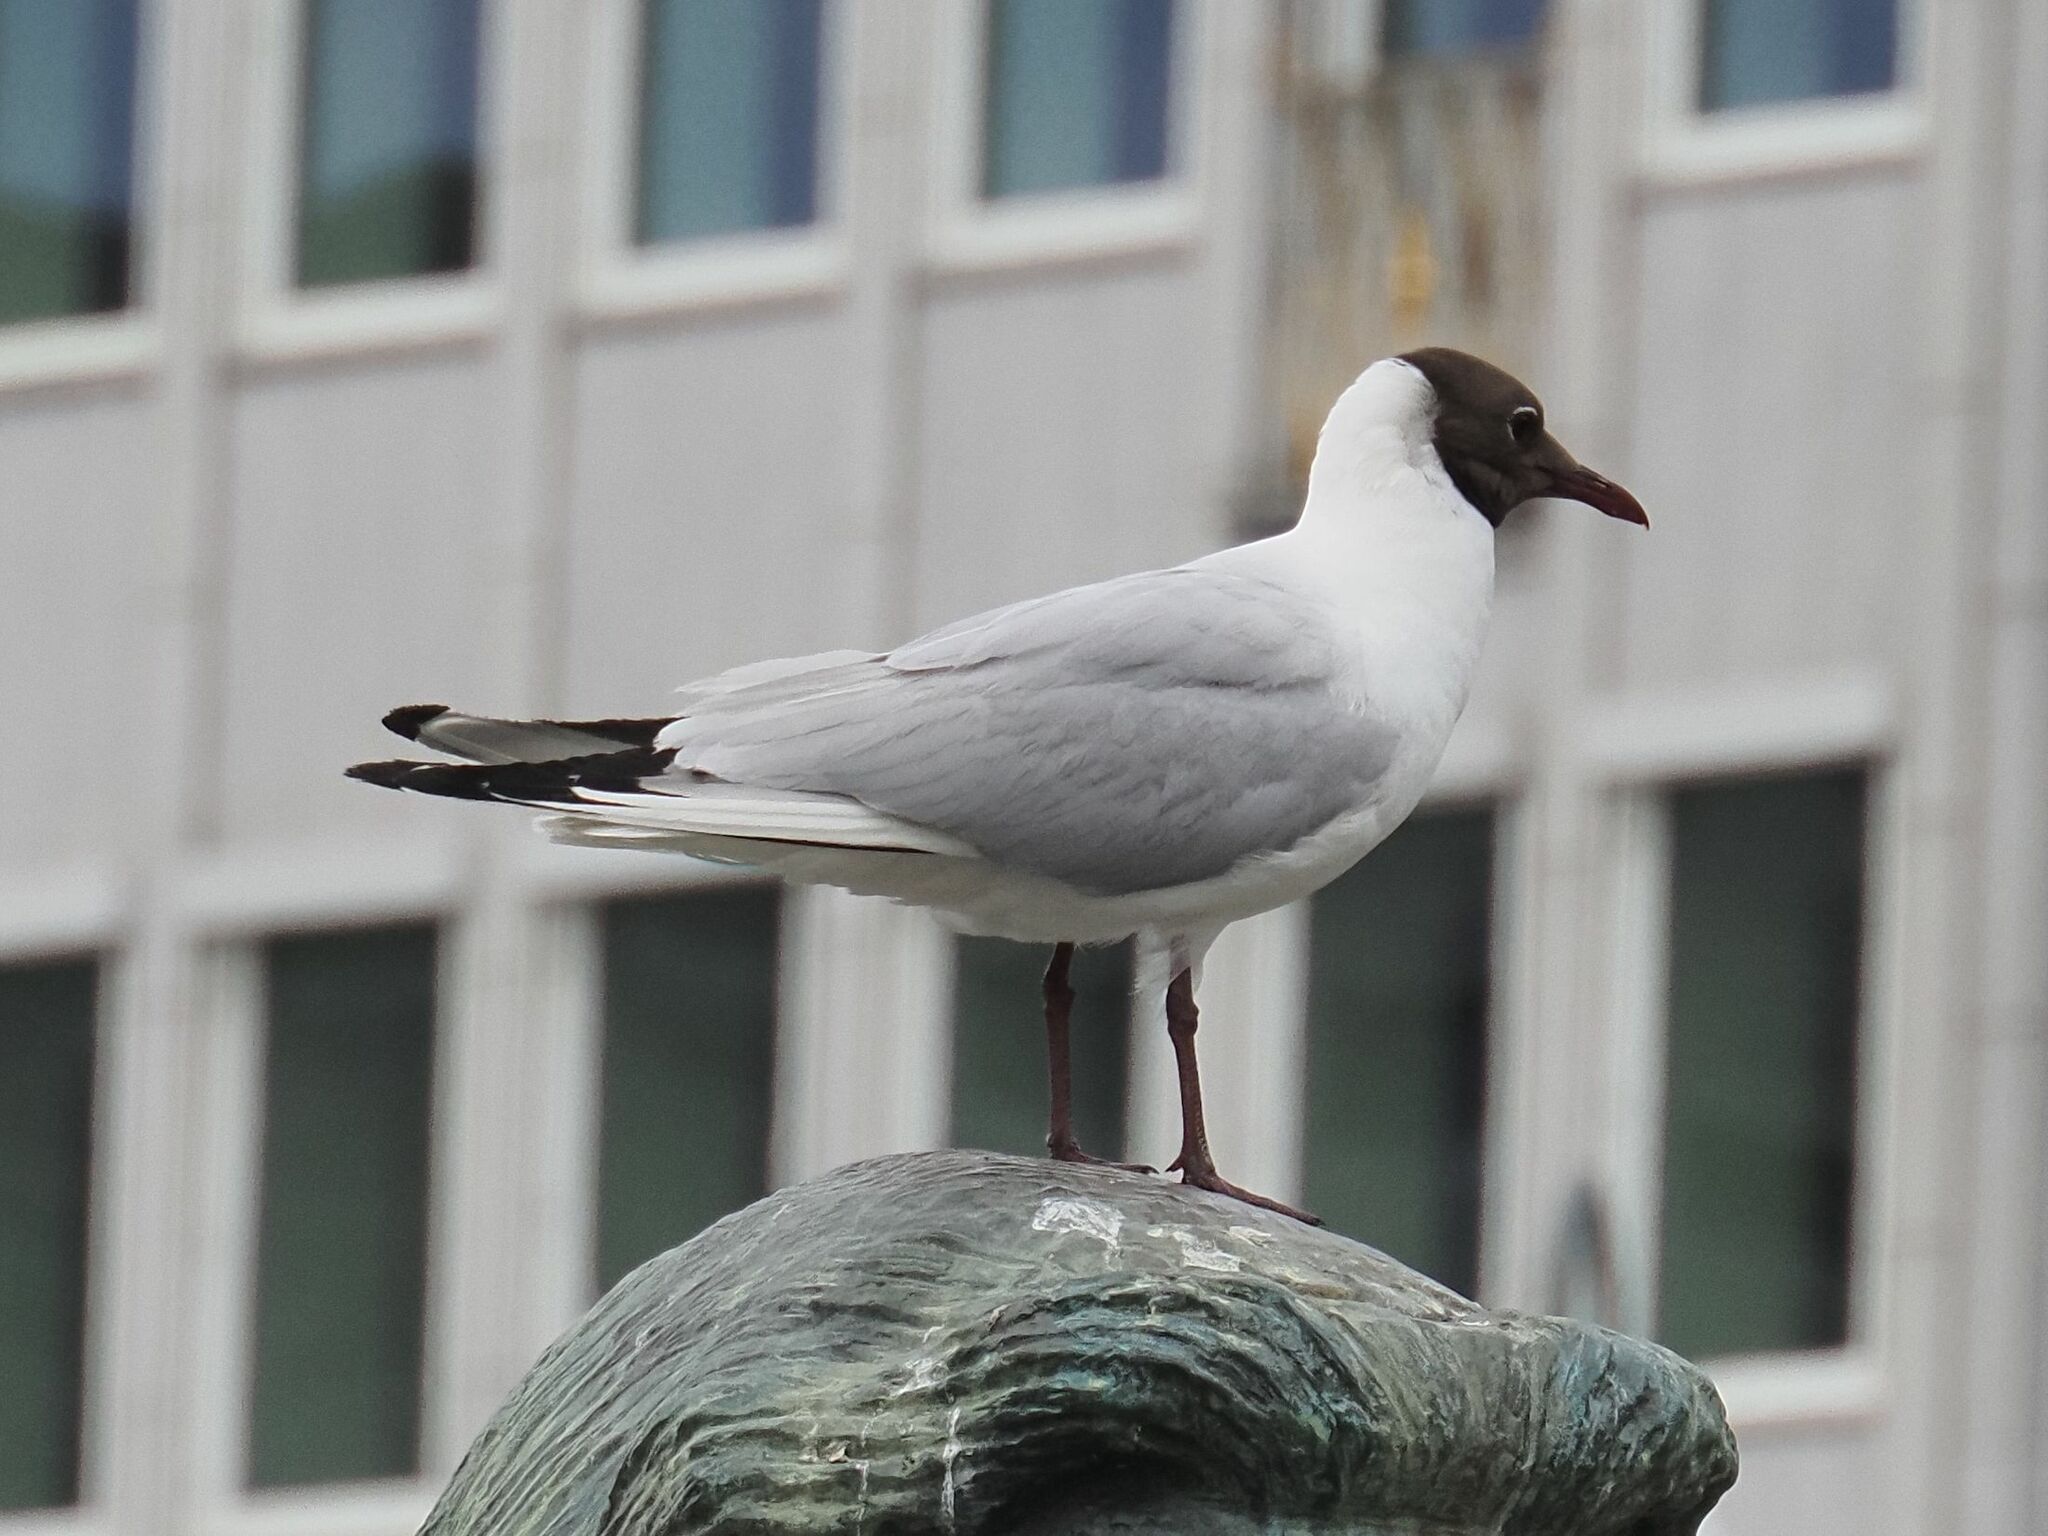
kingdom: Animalia
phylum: Chordata
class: Aves
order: Charadriiformes
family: Laridae
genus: Chroicocephalus
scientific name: Chroicocephalus ridibundus
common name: Black-headed gull
